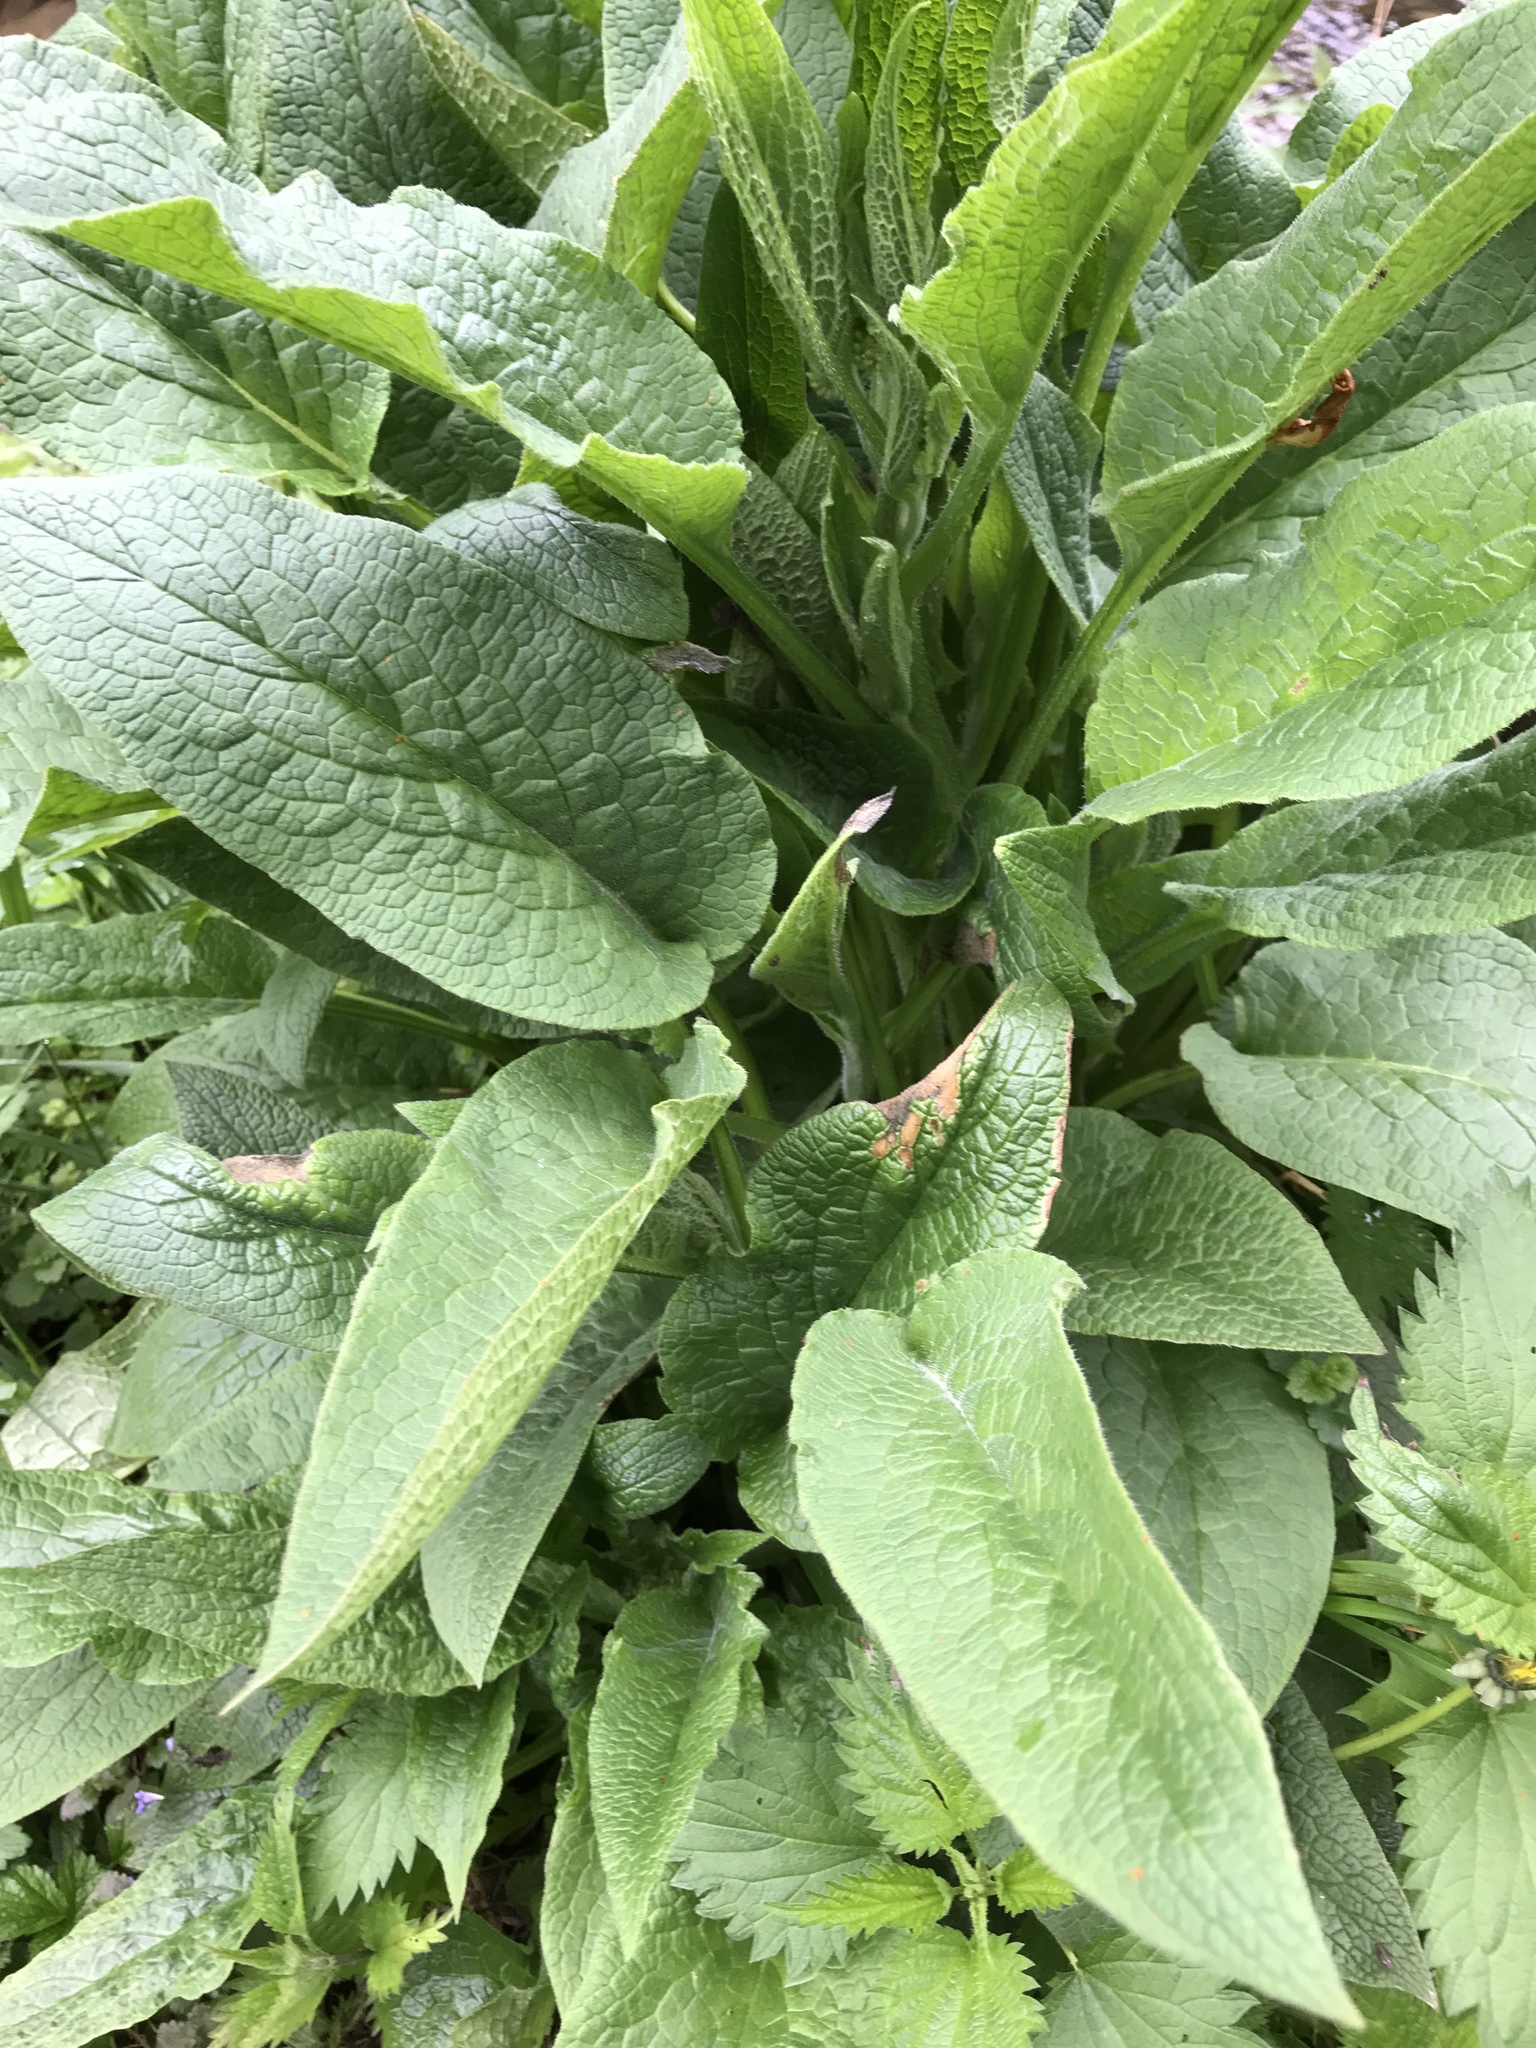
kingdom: Plantae
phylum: Tracheophyta
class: Magnoliopsida
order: Boraginales
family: Boraginaceae
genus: Symphytum
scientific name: Symphytum officinale
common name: Common comfrey
